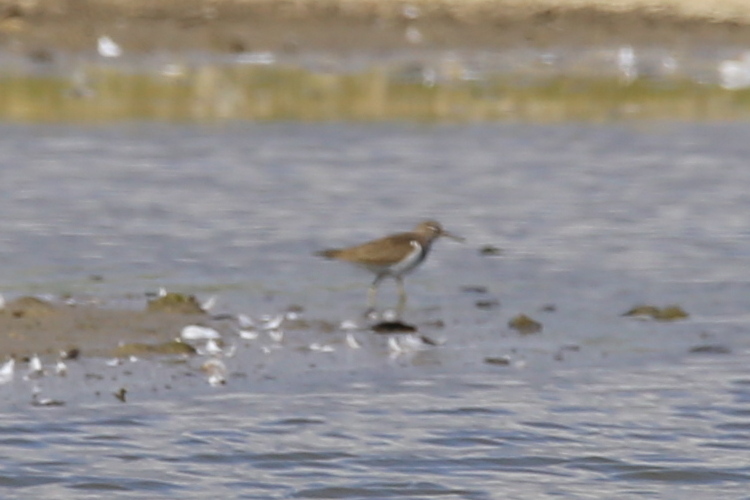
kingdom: Animalia
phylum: Chordata
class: Aves
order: Charadriiformes
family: Scolopacidae
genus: Actitis
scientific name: Actitis hypoleucos
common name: Common sandpiper
